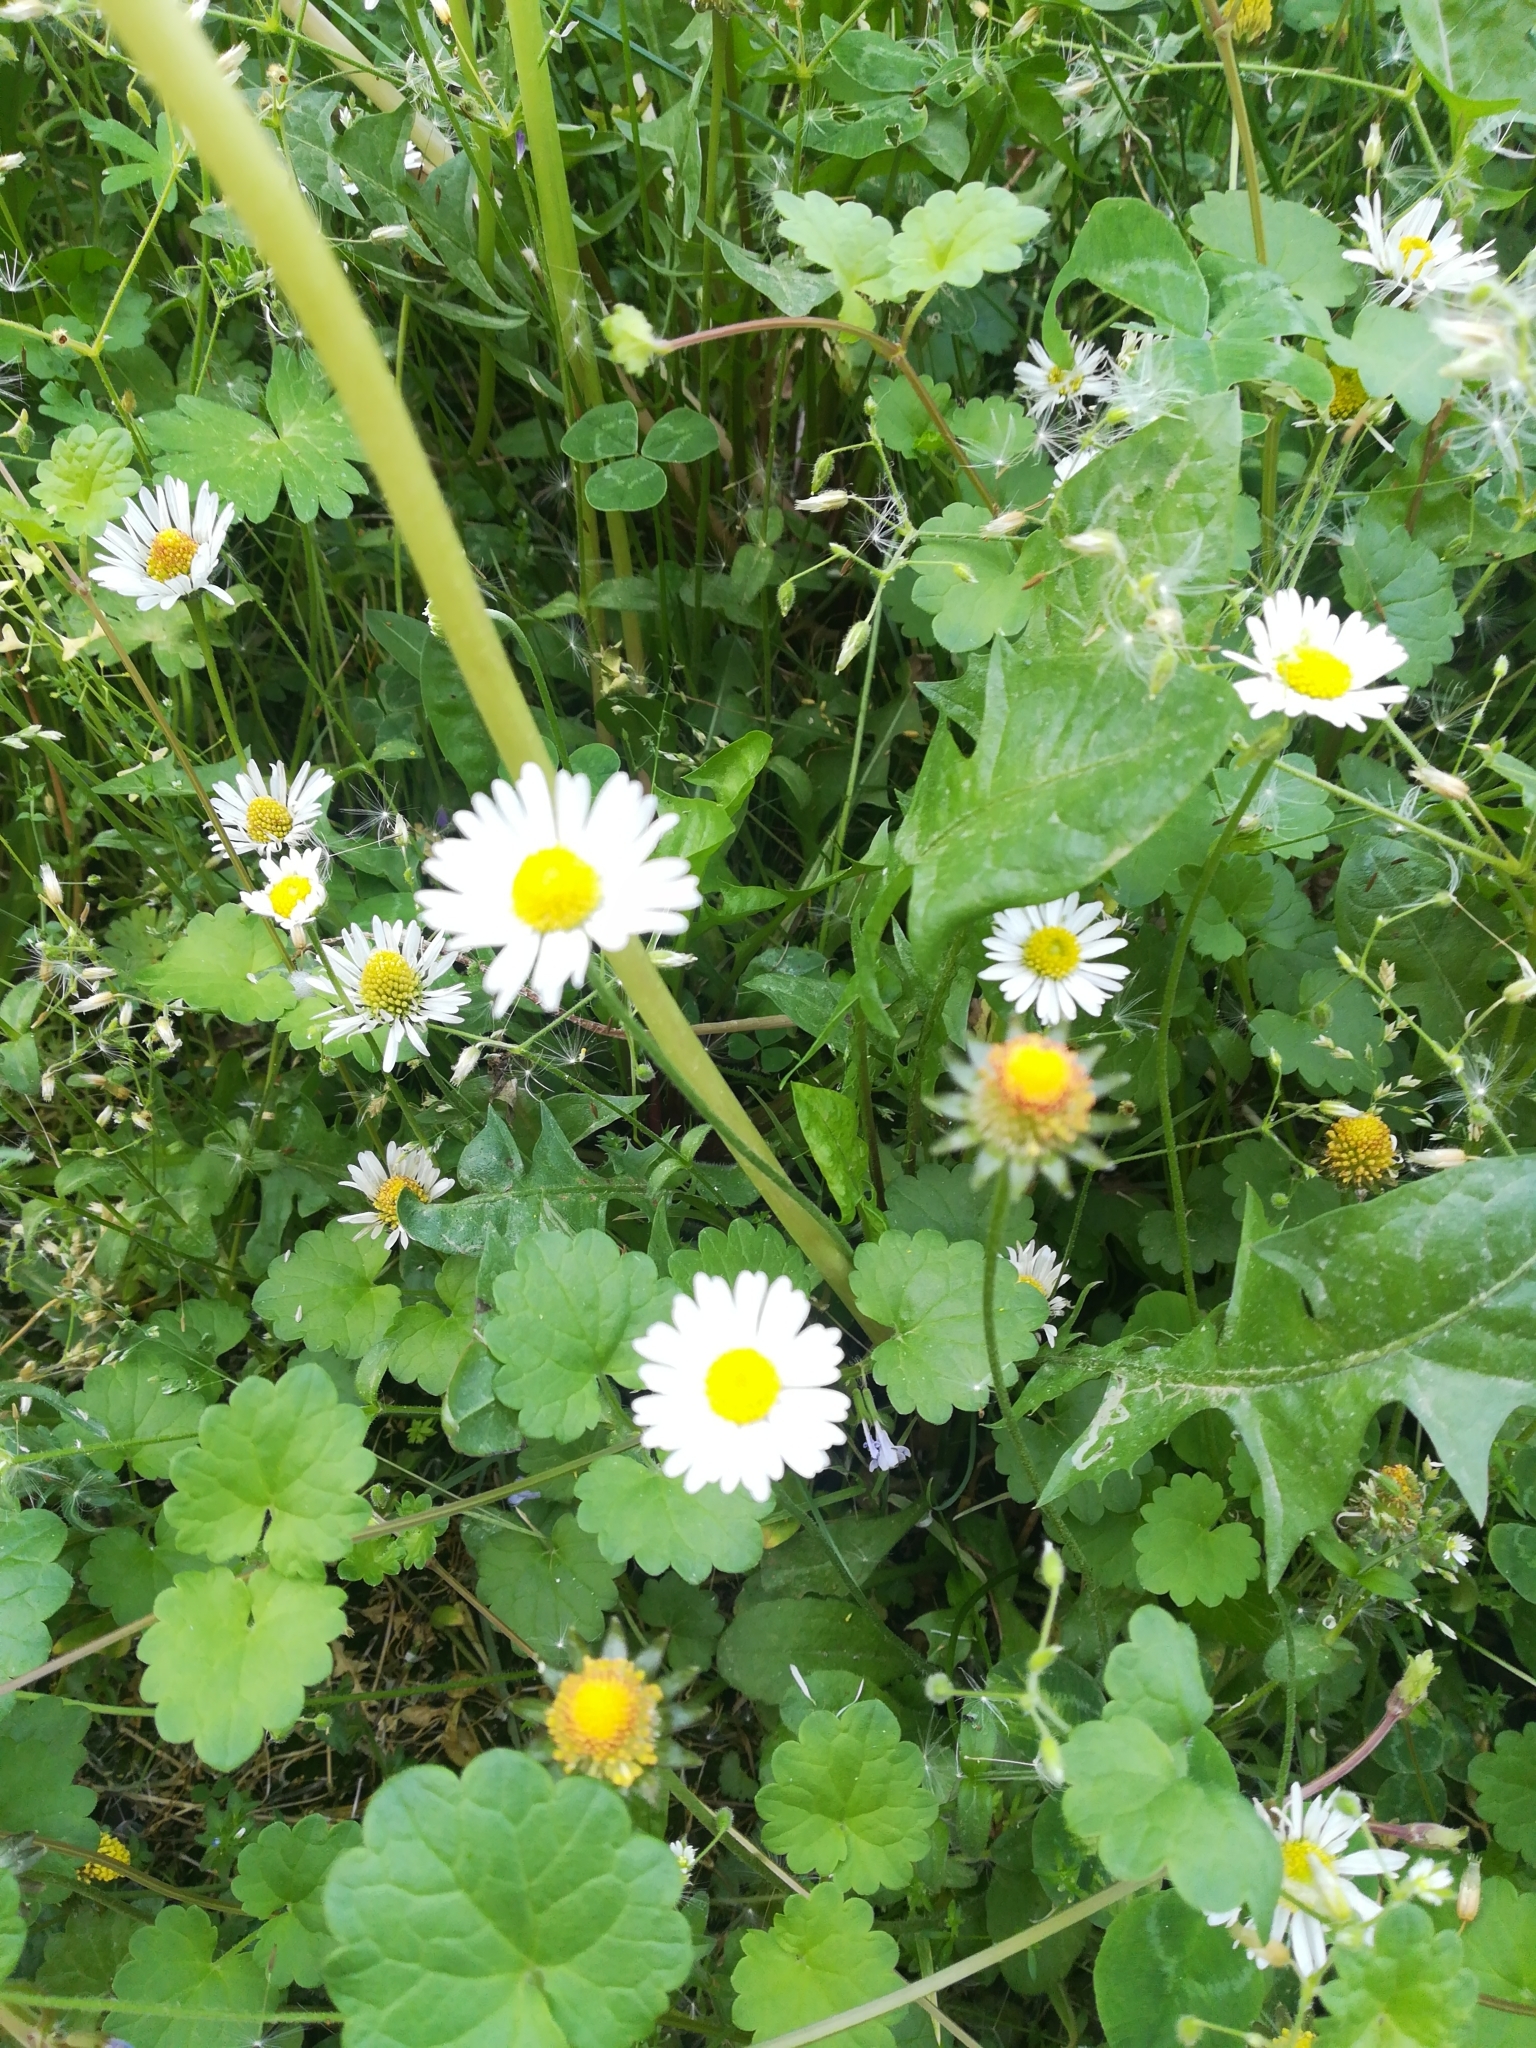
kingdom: Plantae
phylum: Tracheophyta
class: Magnoliopsida
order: Asterales
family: Asteraceae
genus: Bellis
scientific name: Bellis perennis
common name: Lawndaisy
